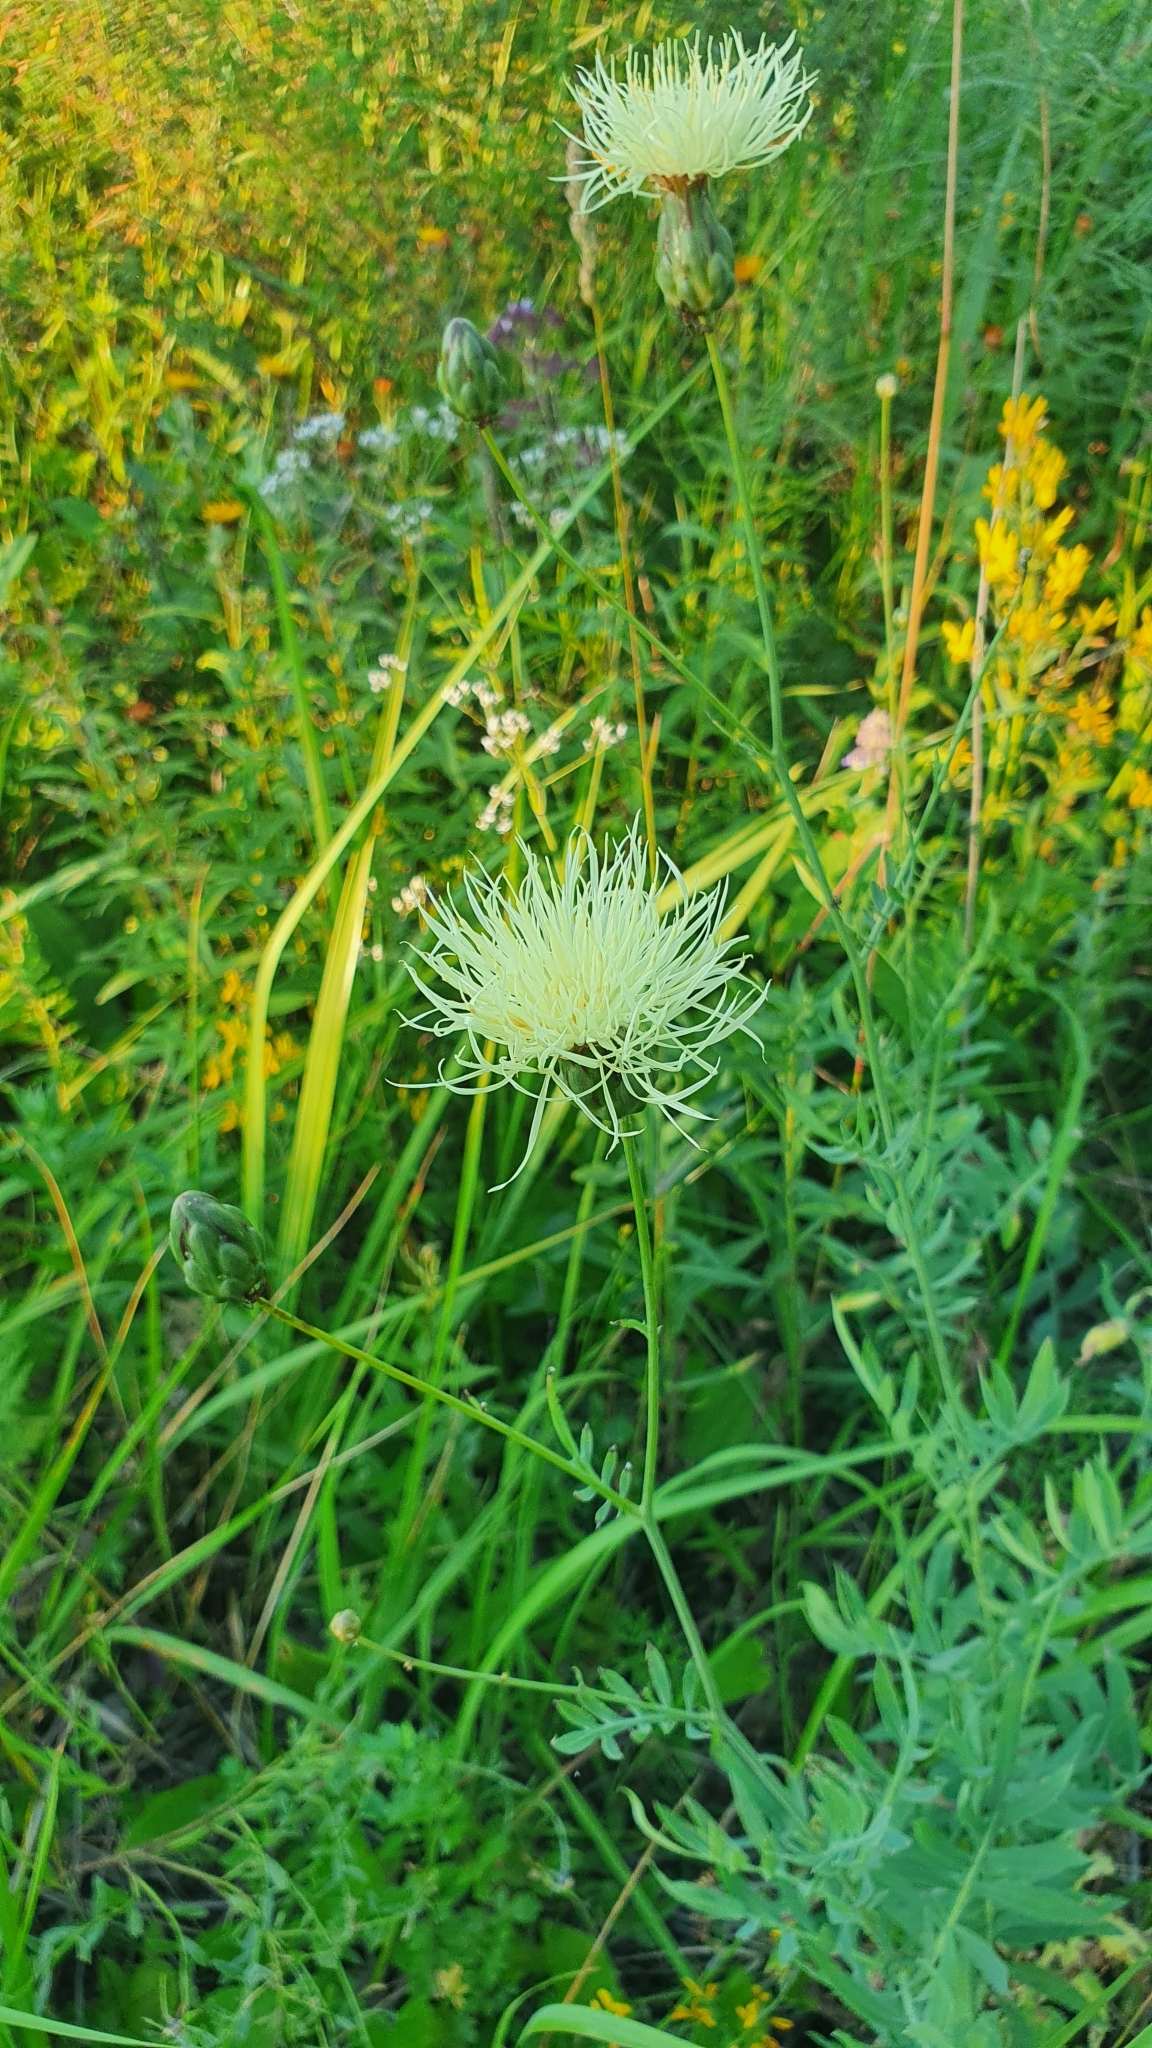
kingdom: Plantae
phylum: Tracheophyta
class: Magnoliopsida
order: Asterales
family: Asteraceae
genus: Rhaponticoides
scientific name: Rhaponticoides ruthenica
